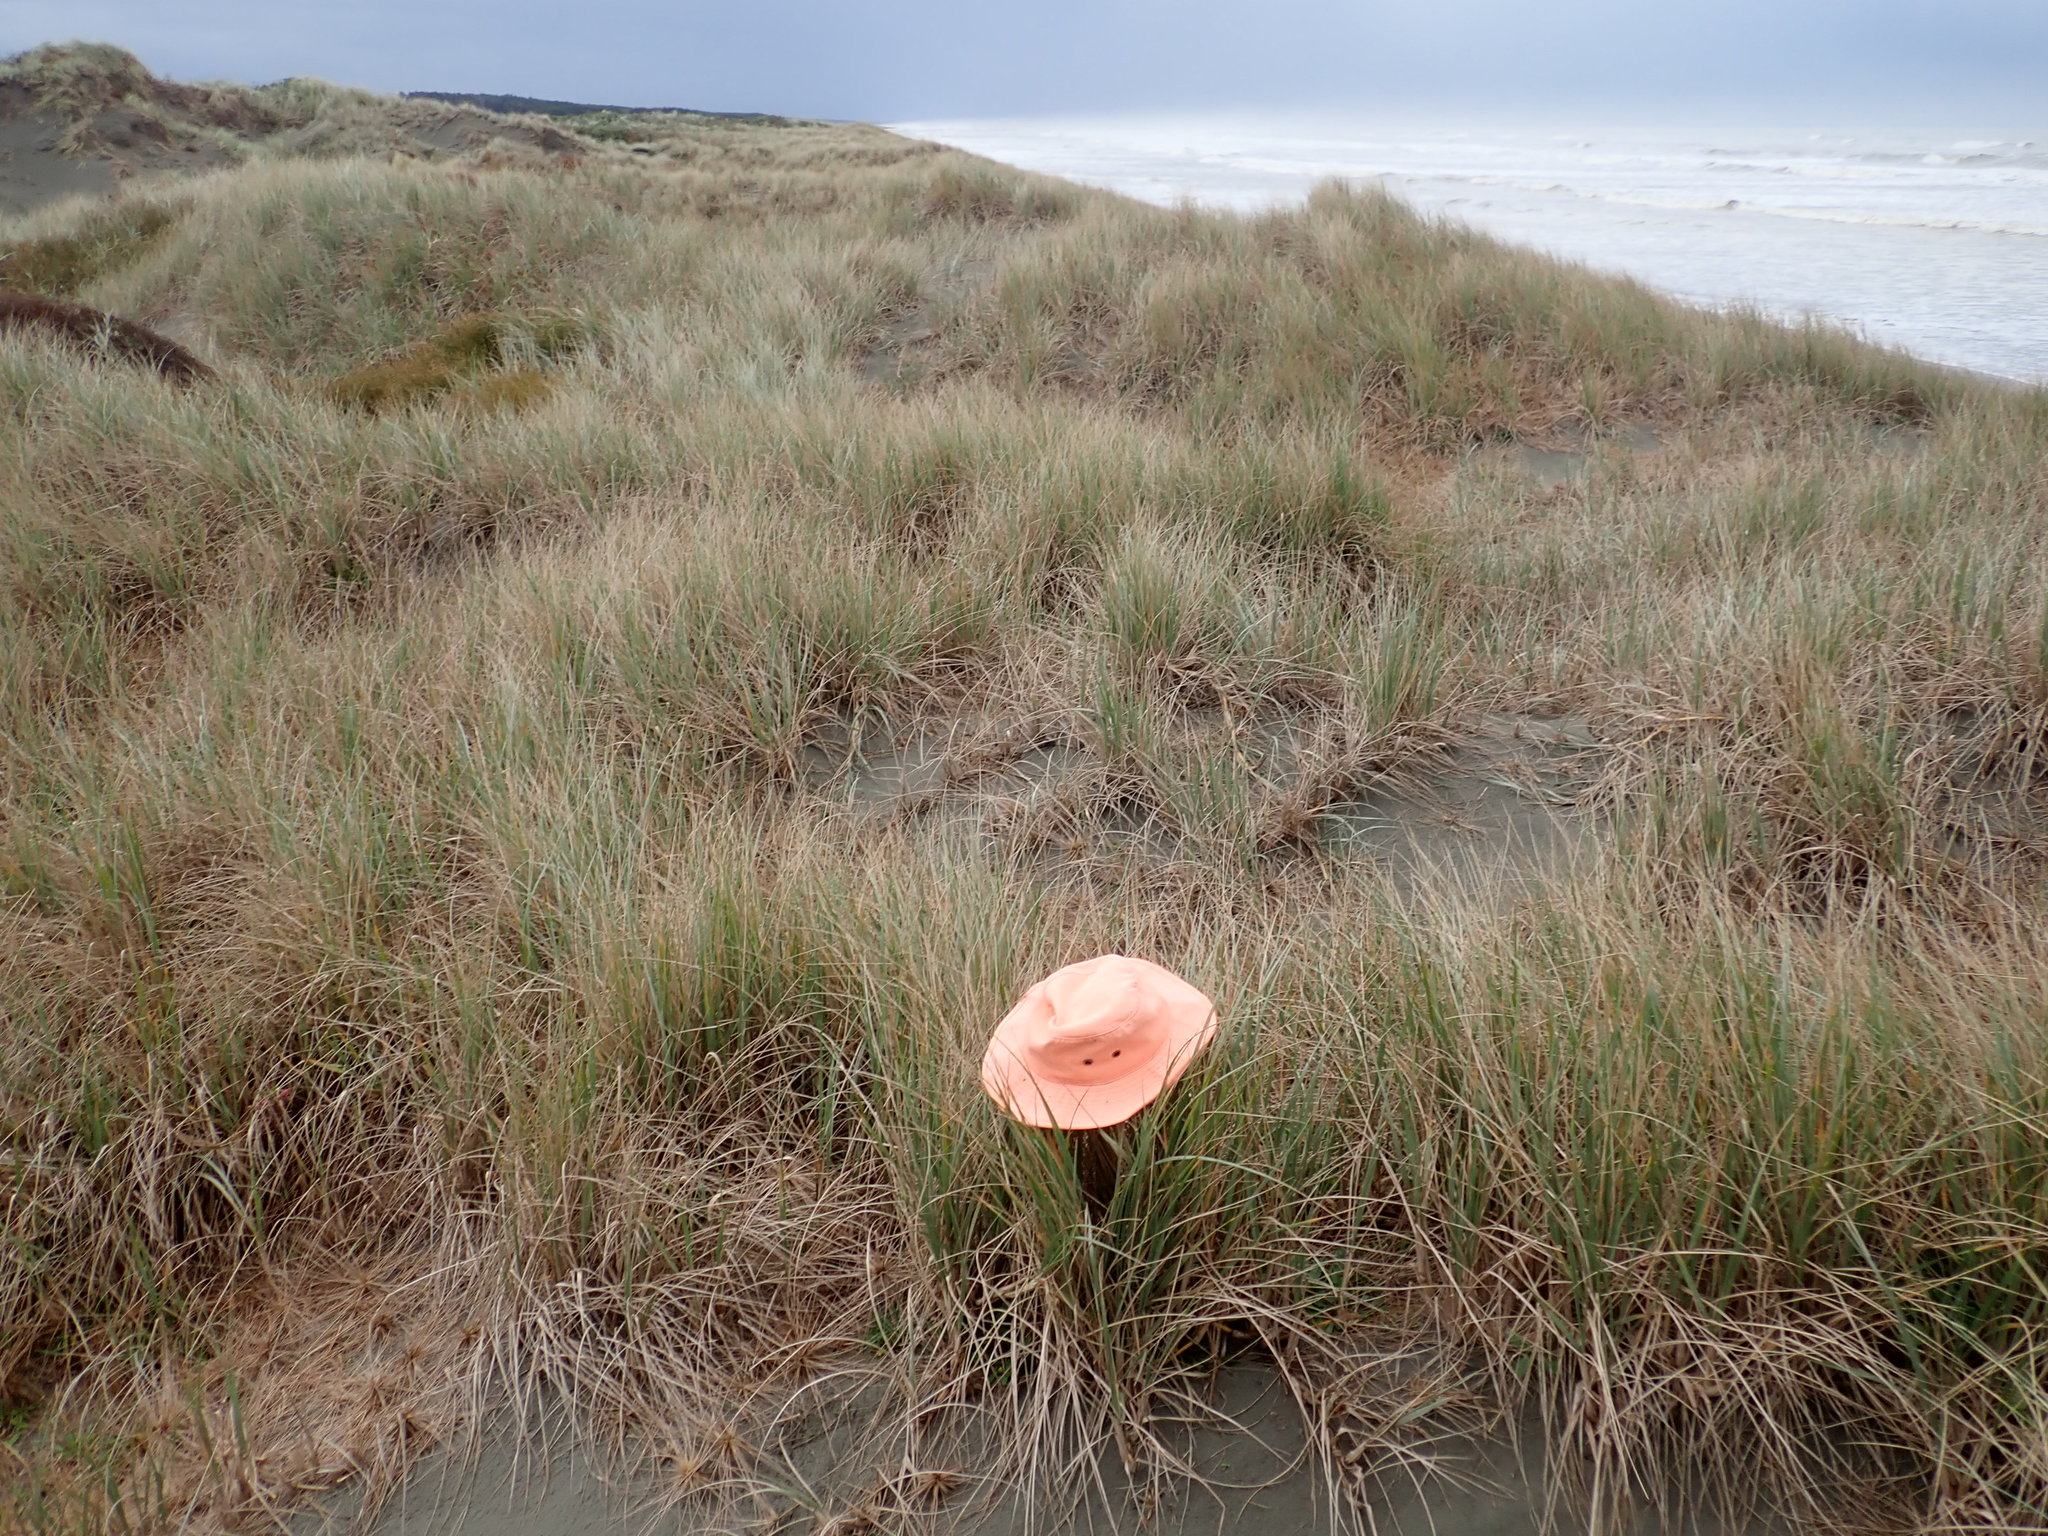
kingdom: Animalia
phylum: Arthropoda
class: Arachnida
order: Araneae
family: Thomisidae
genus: Sidymella
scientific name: Sidymella trapezia
